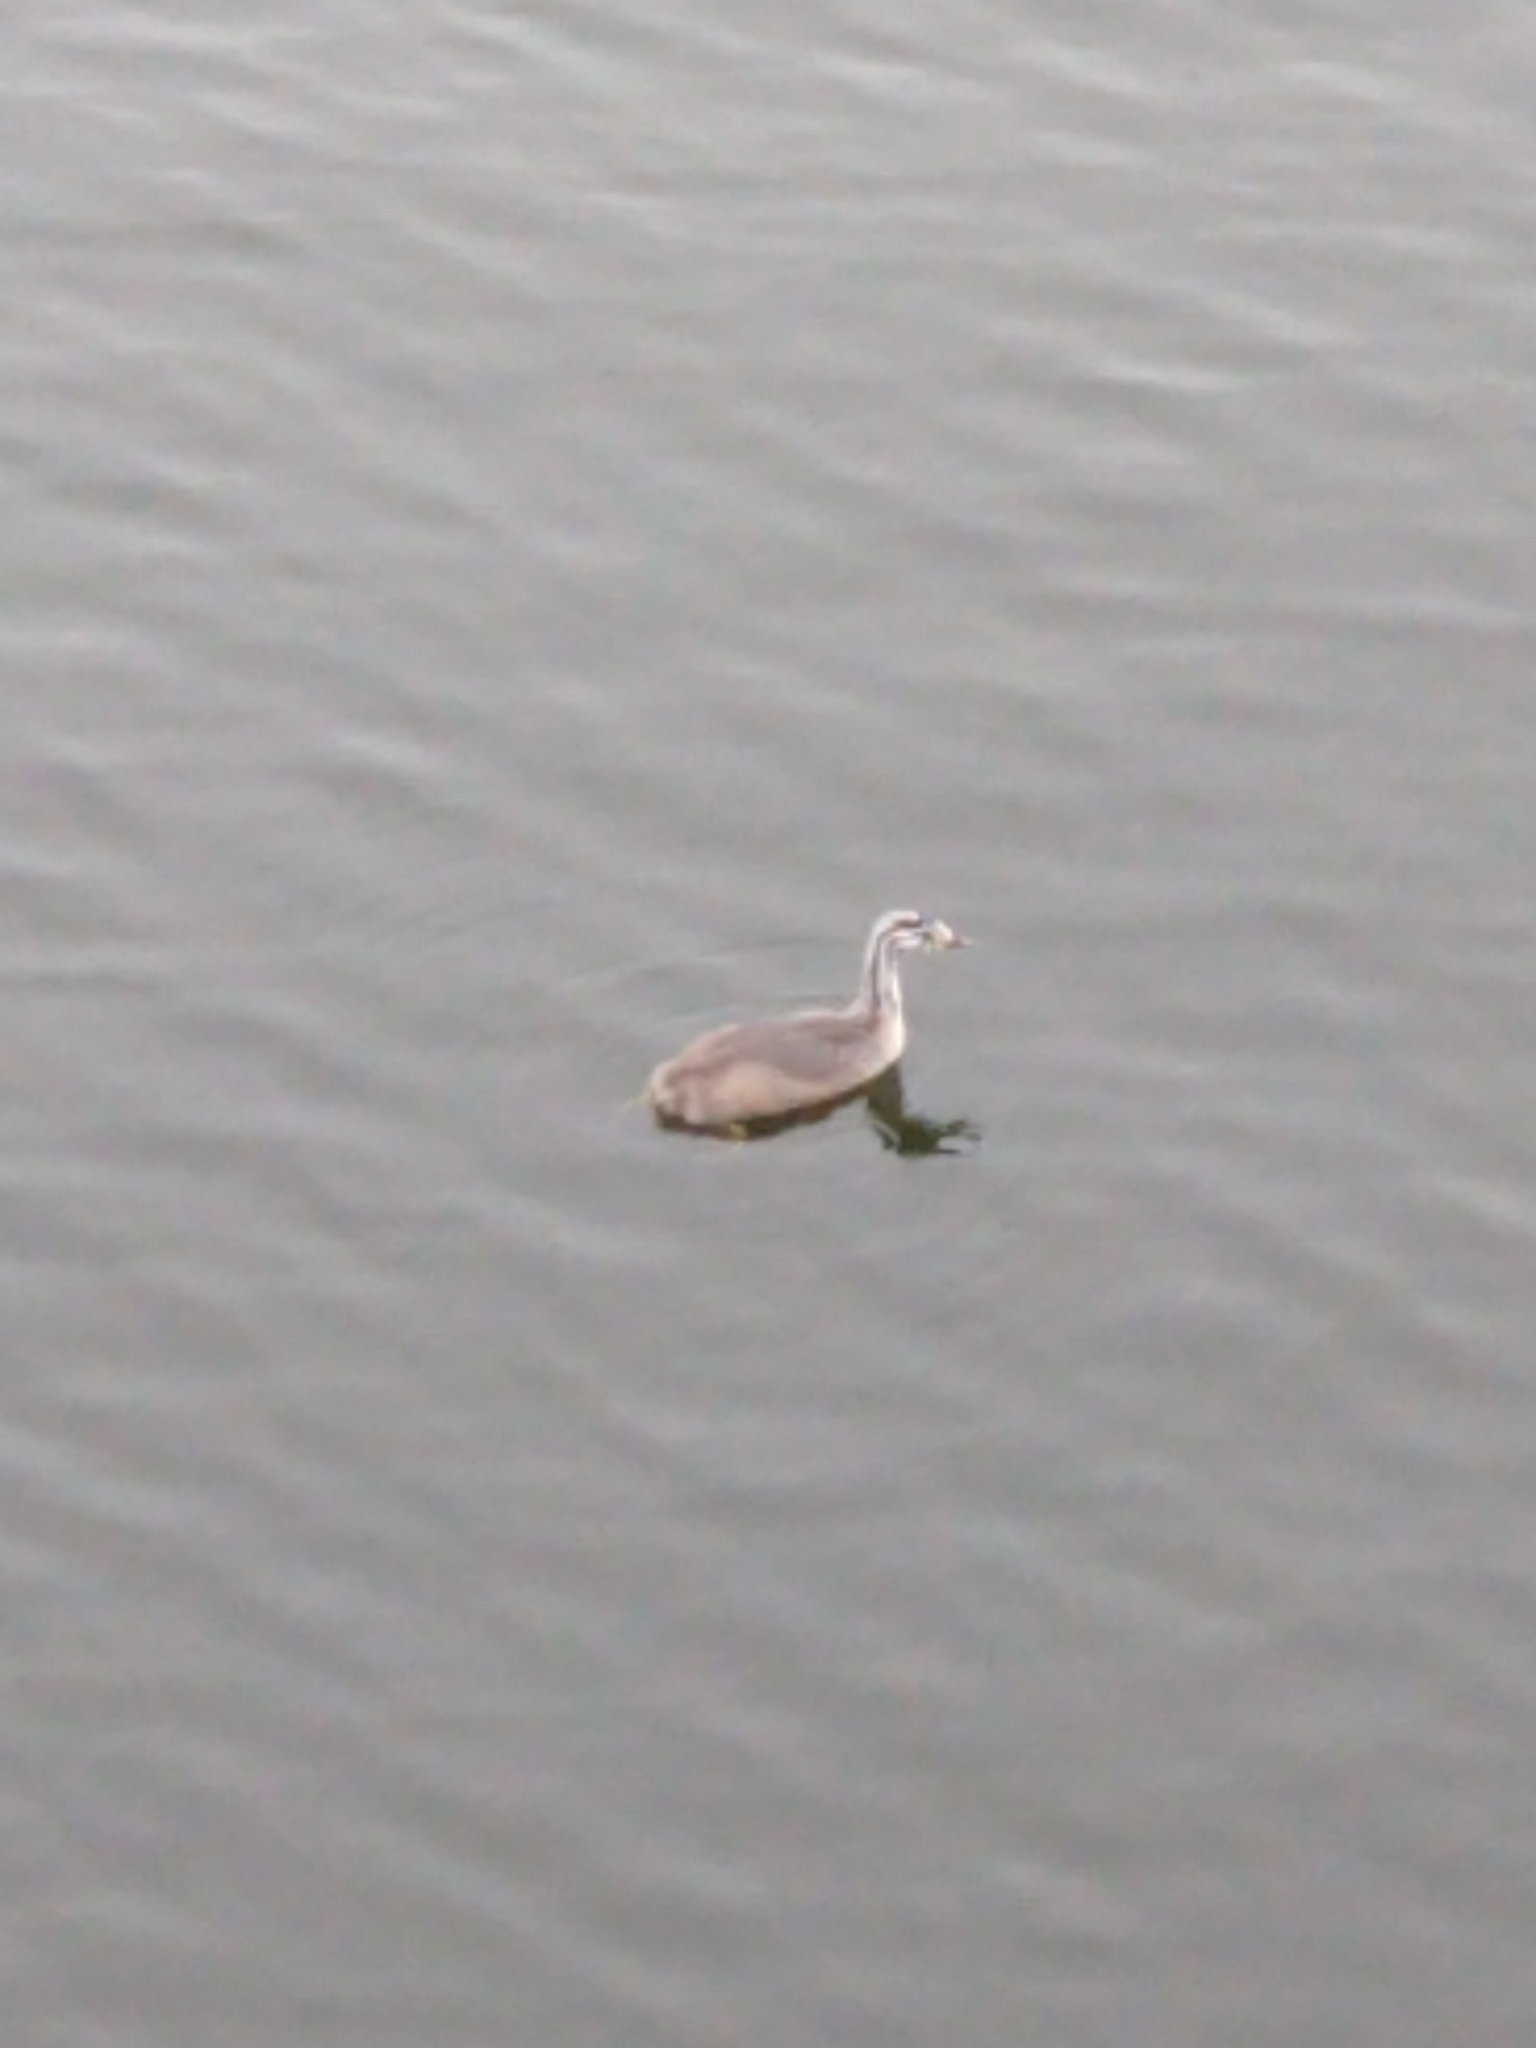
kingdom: Animalia
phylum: Chordata
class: Aves
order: Podicipediformes
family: Podicipedidae
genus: Podiceps
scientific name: Podiceps cristatus
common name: Great crested grebe
